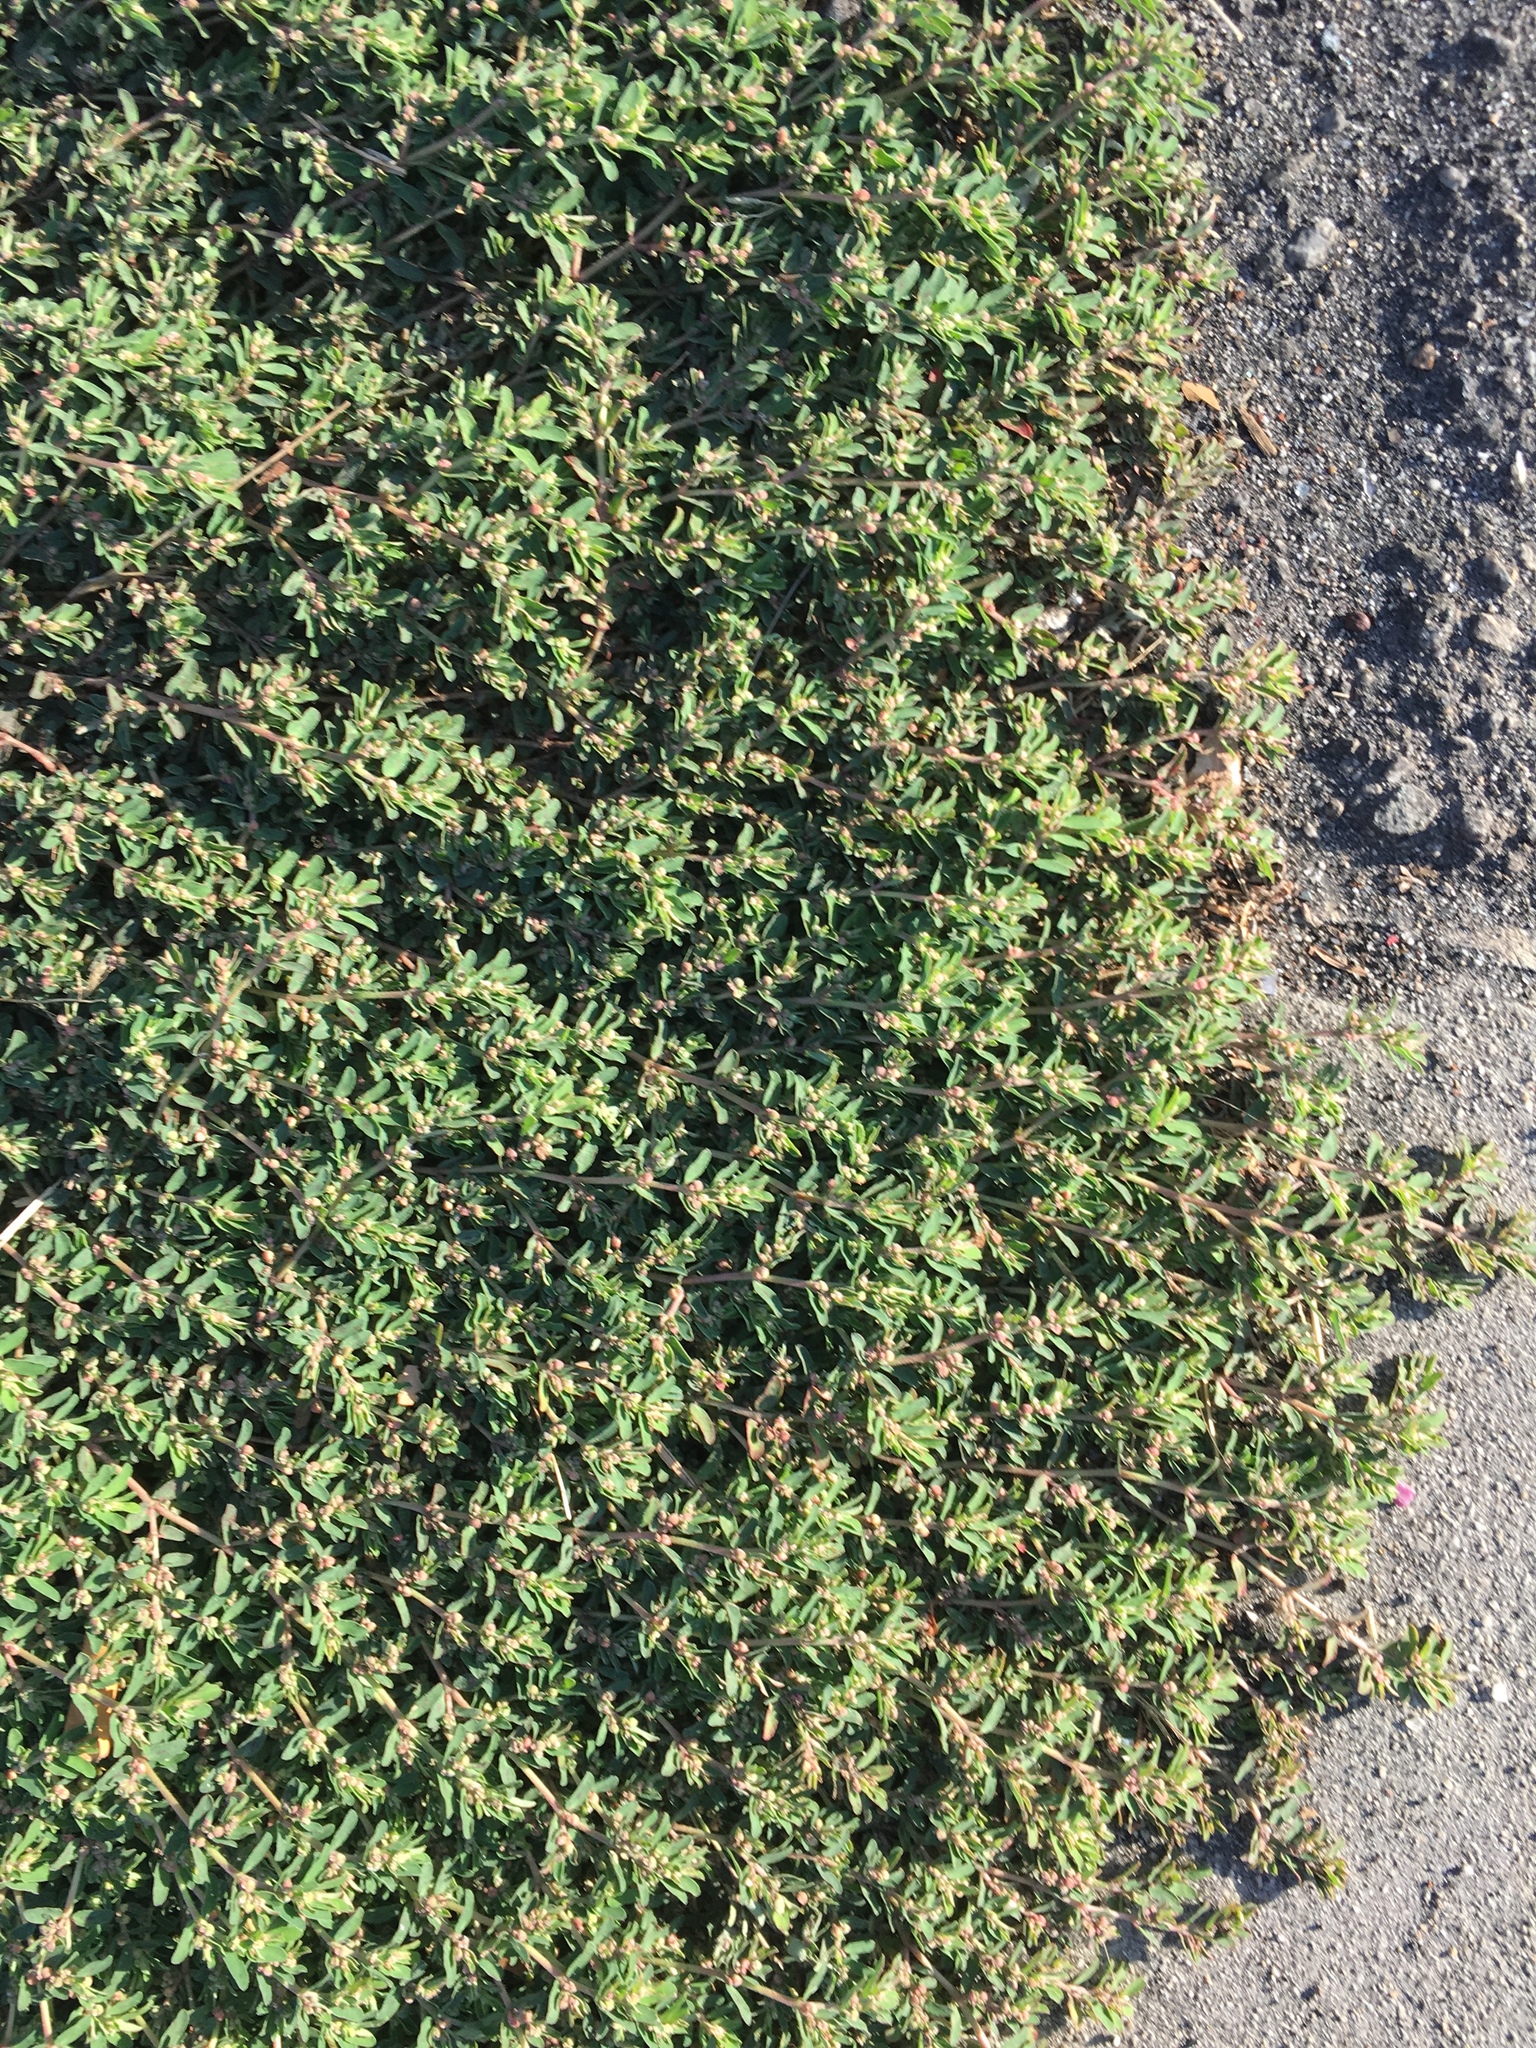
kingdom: Plantae
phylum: Tracheophyta
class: Magnoliopsida
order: Malpighiales
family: Euphorbiaceae
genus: Euphorbia
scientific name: Euphorbia maculata
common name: Spotted spurge
